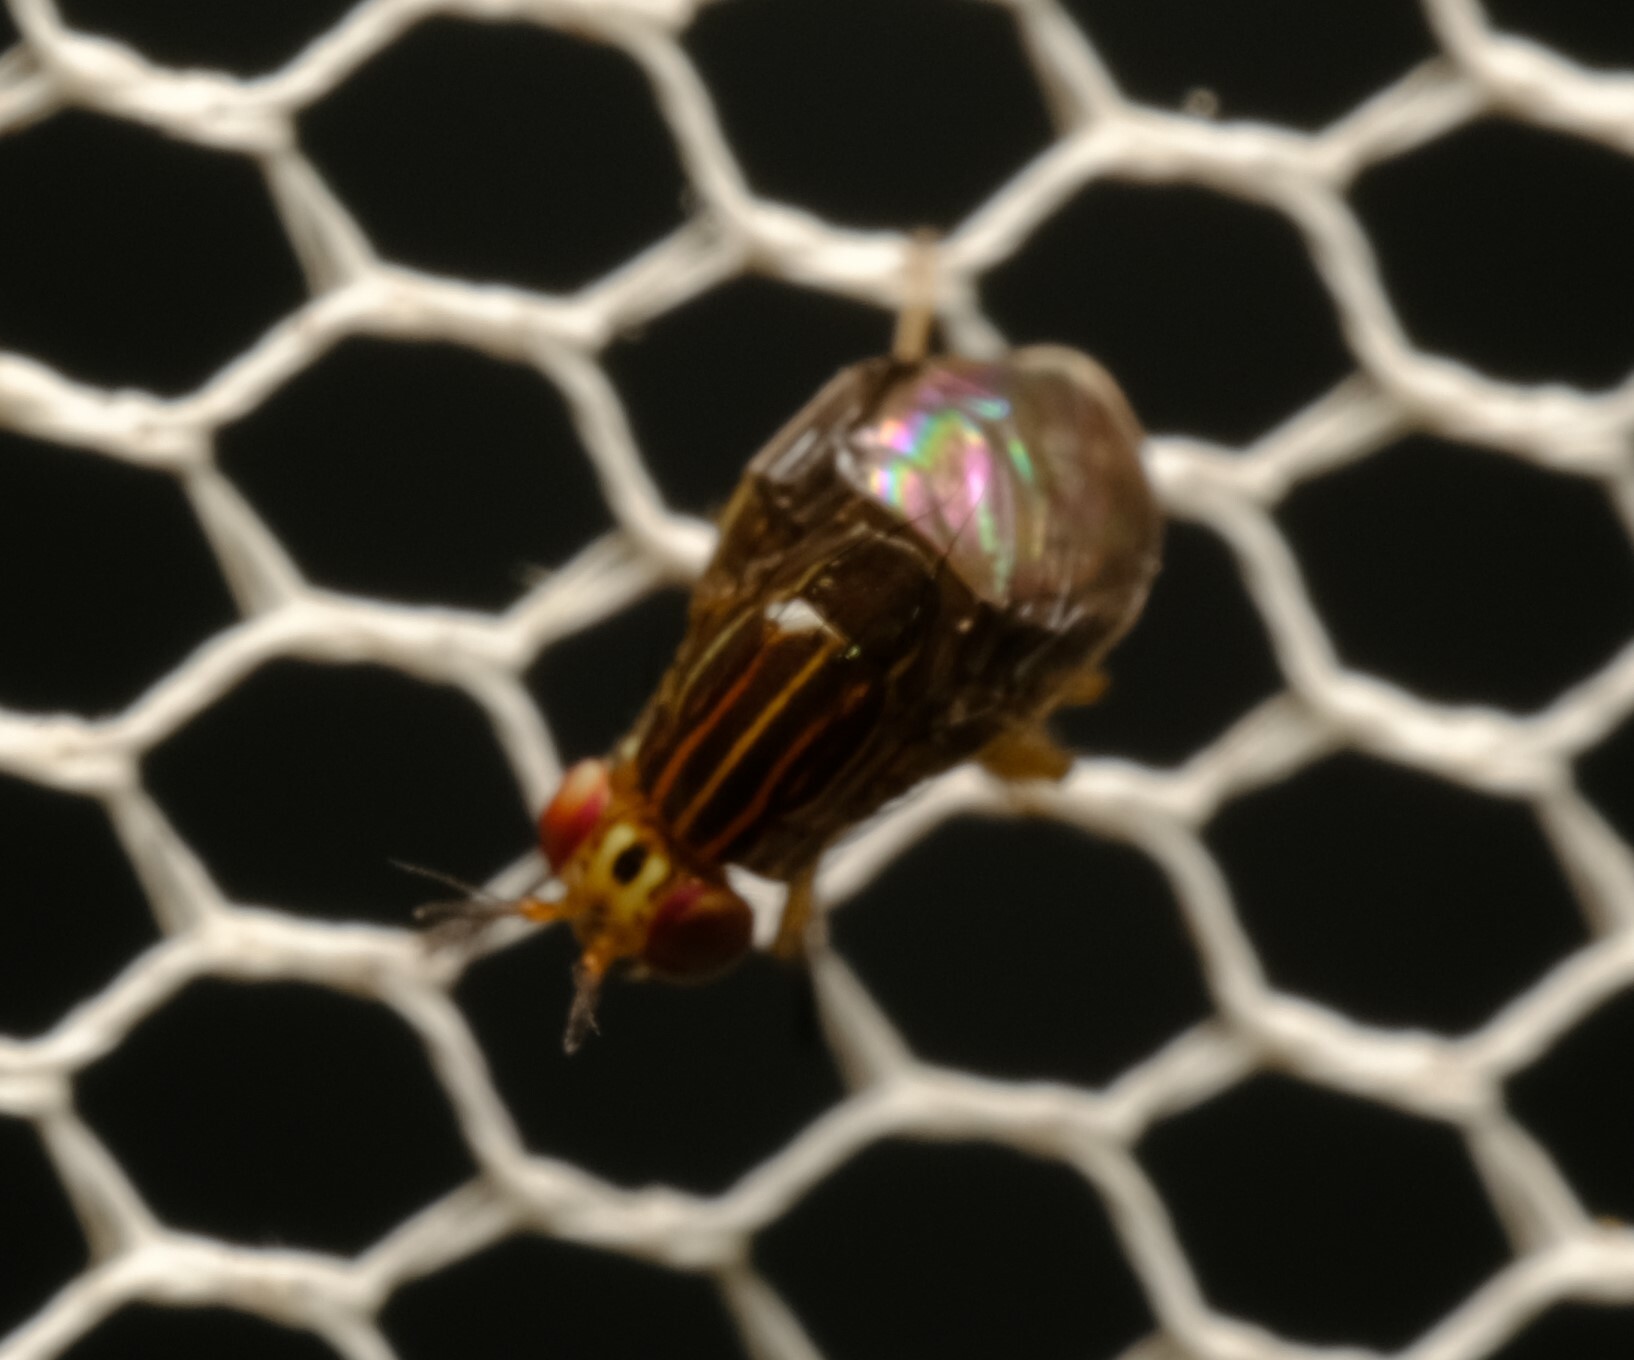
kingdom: Animalia
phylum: Arthropoda
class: Insecta
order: Diptera
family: Lauxaniidae
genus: Steganopsis
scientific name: Steganopsis melanogaster
